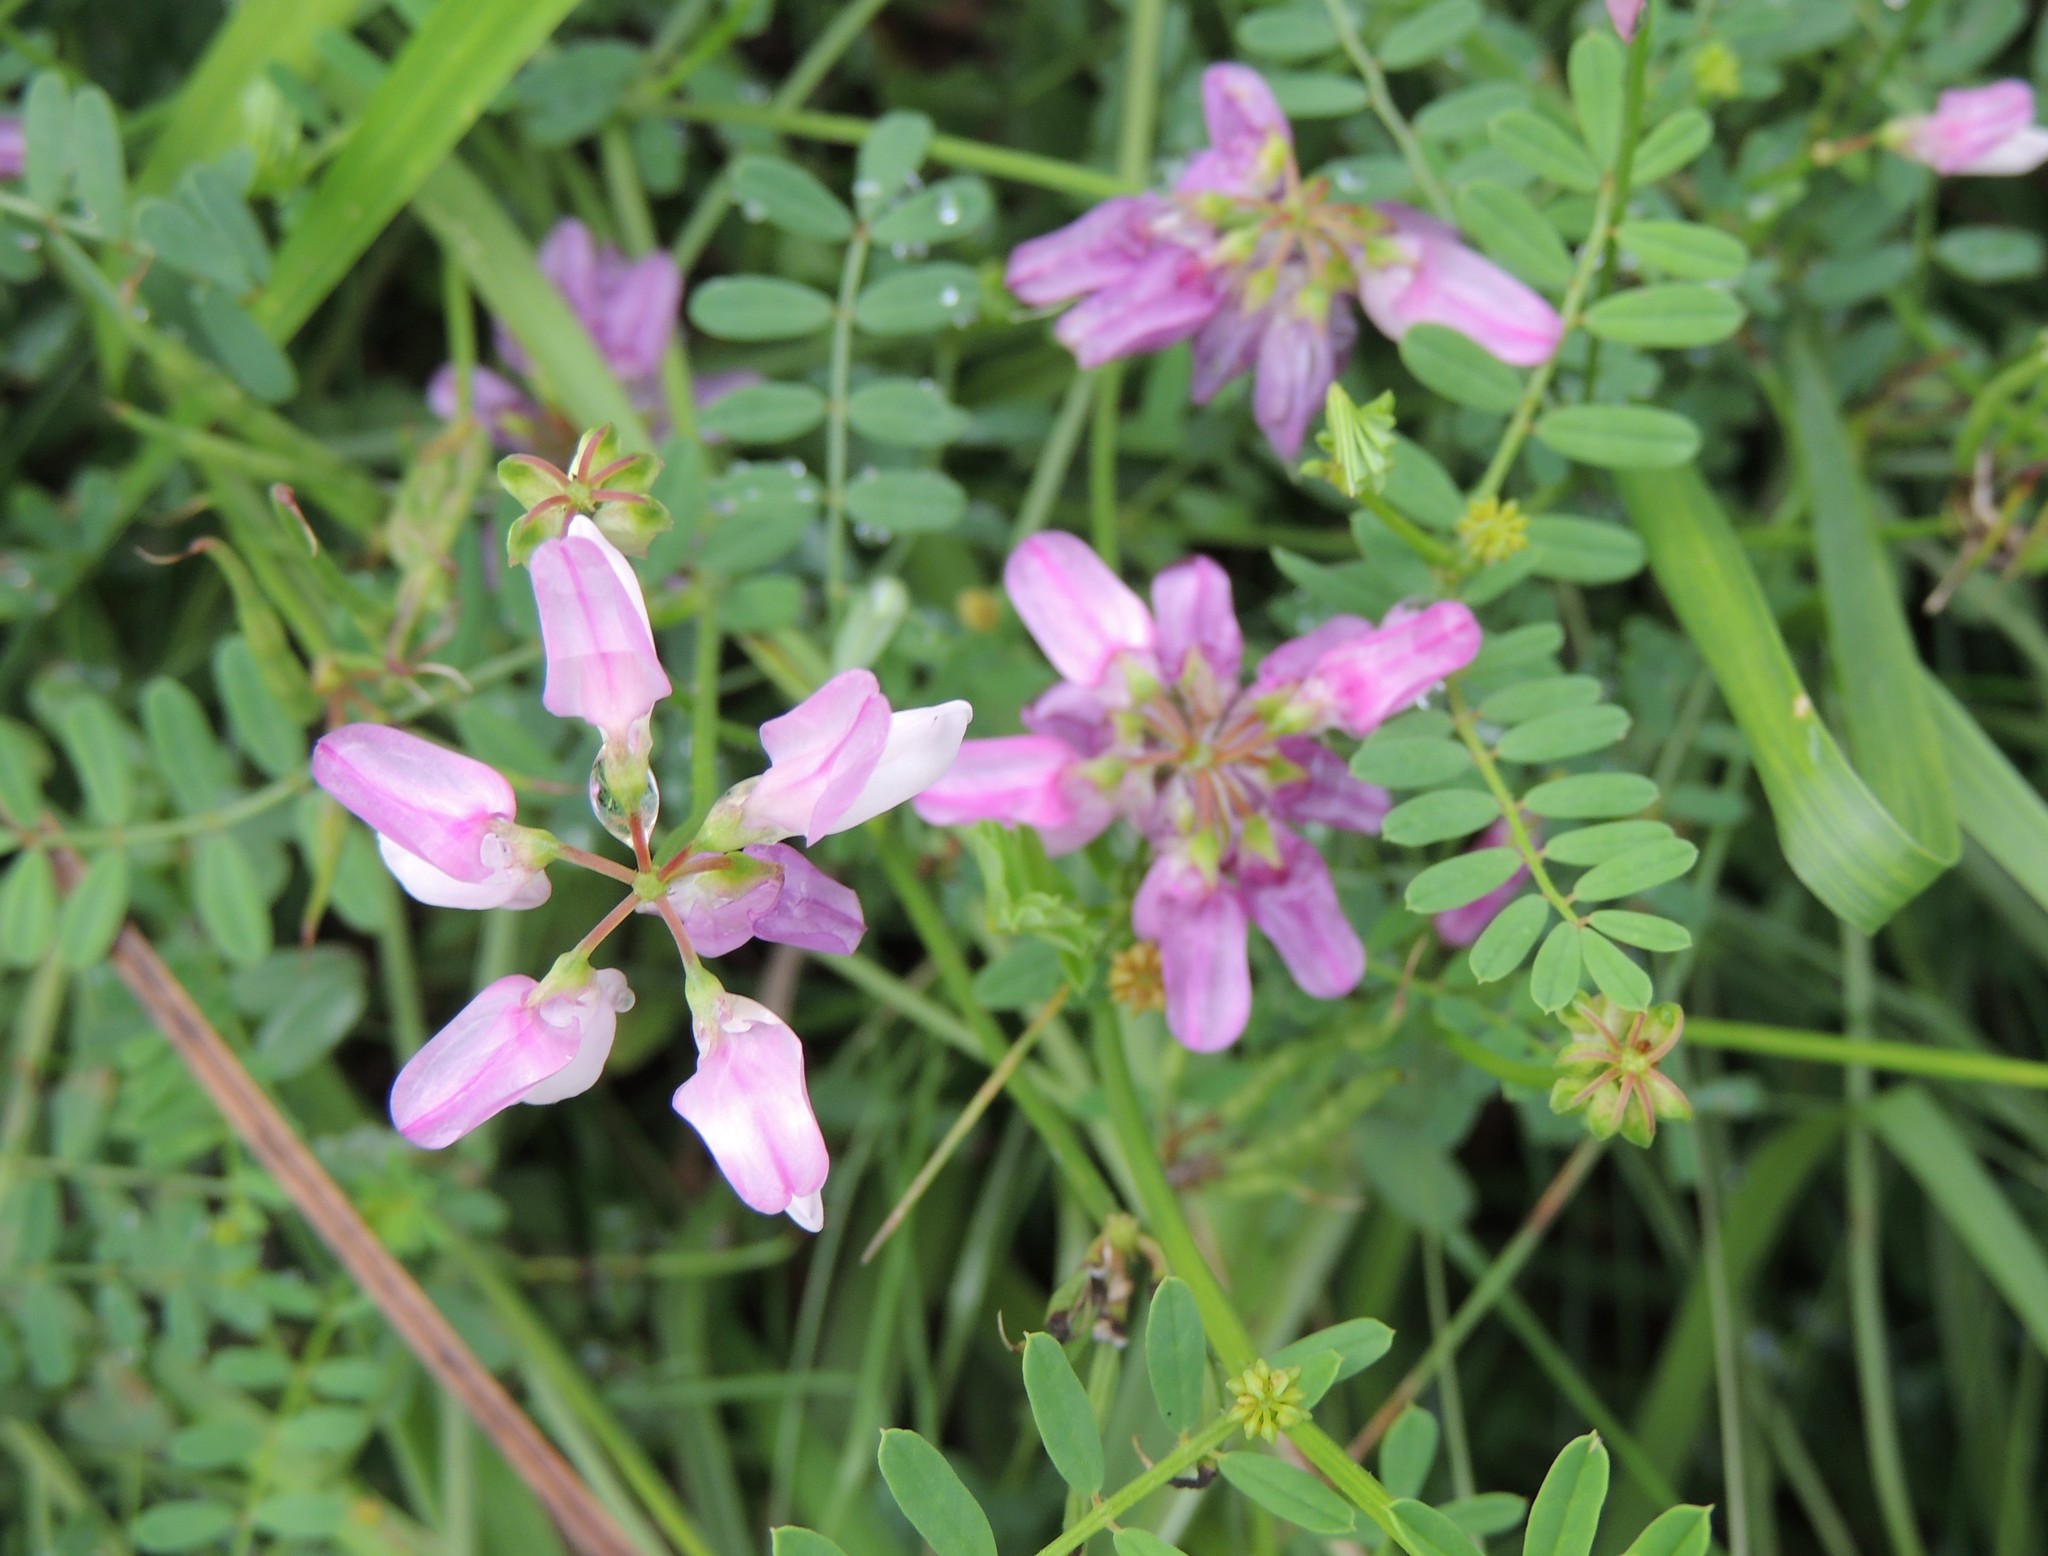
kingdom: Plantae
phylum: Tracheophyta
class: Magnoliopsida
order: Fabales
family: Fabaceae
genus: Coronilla
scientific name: Coronilla varia
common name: Crownvetch
